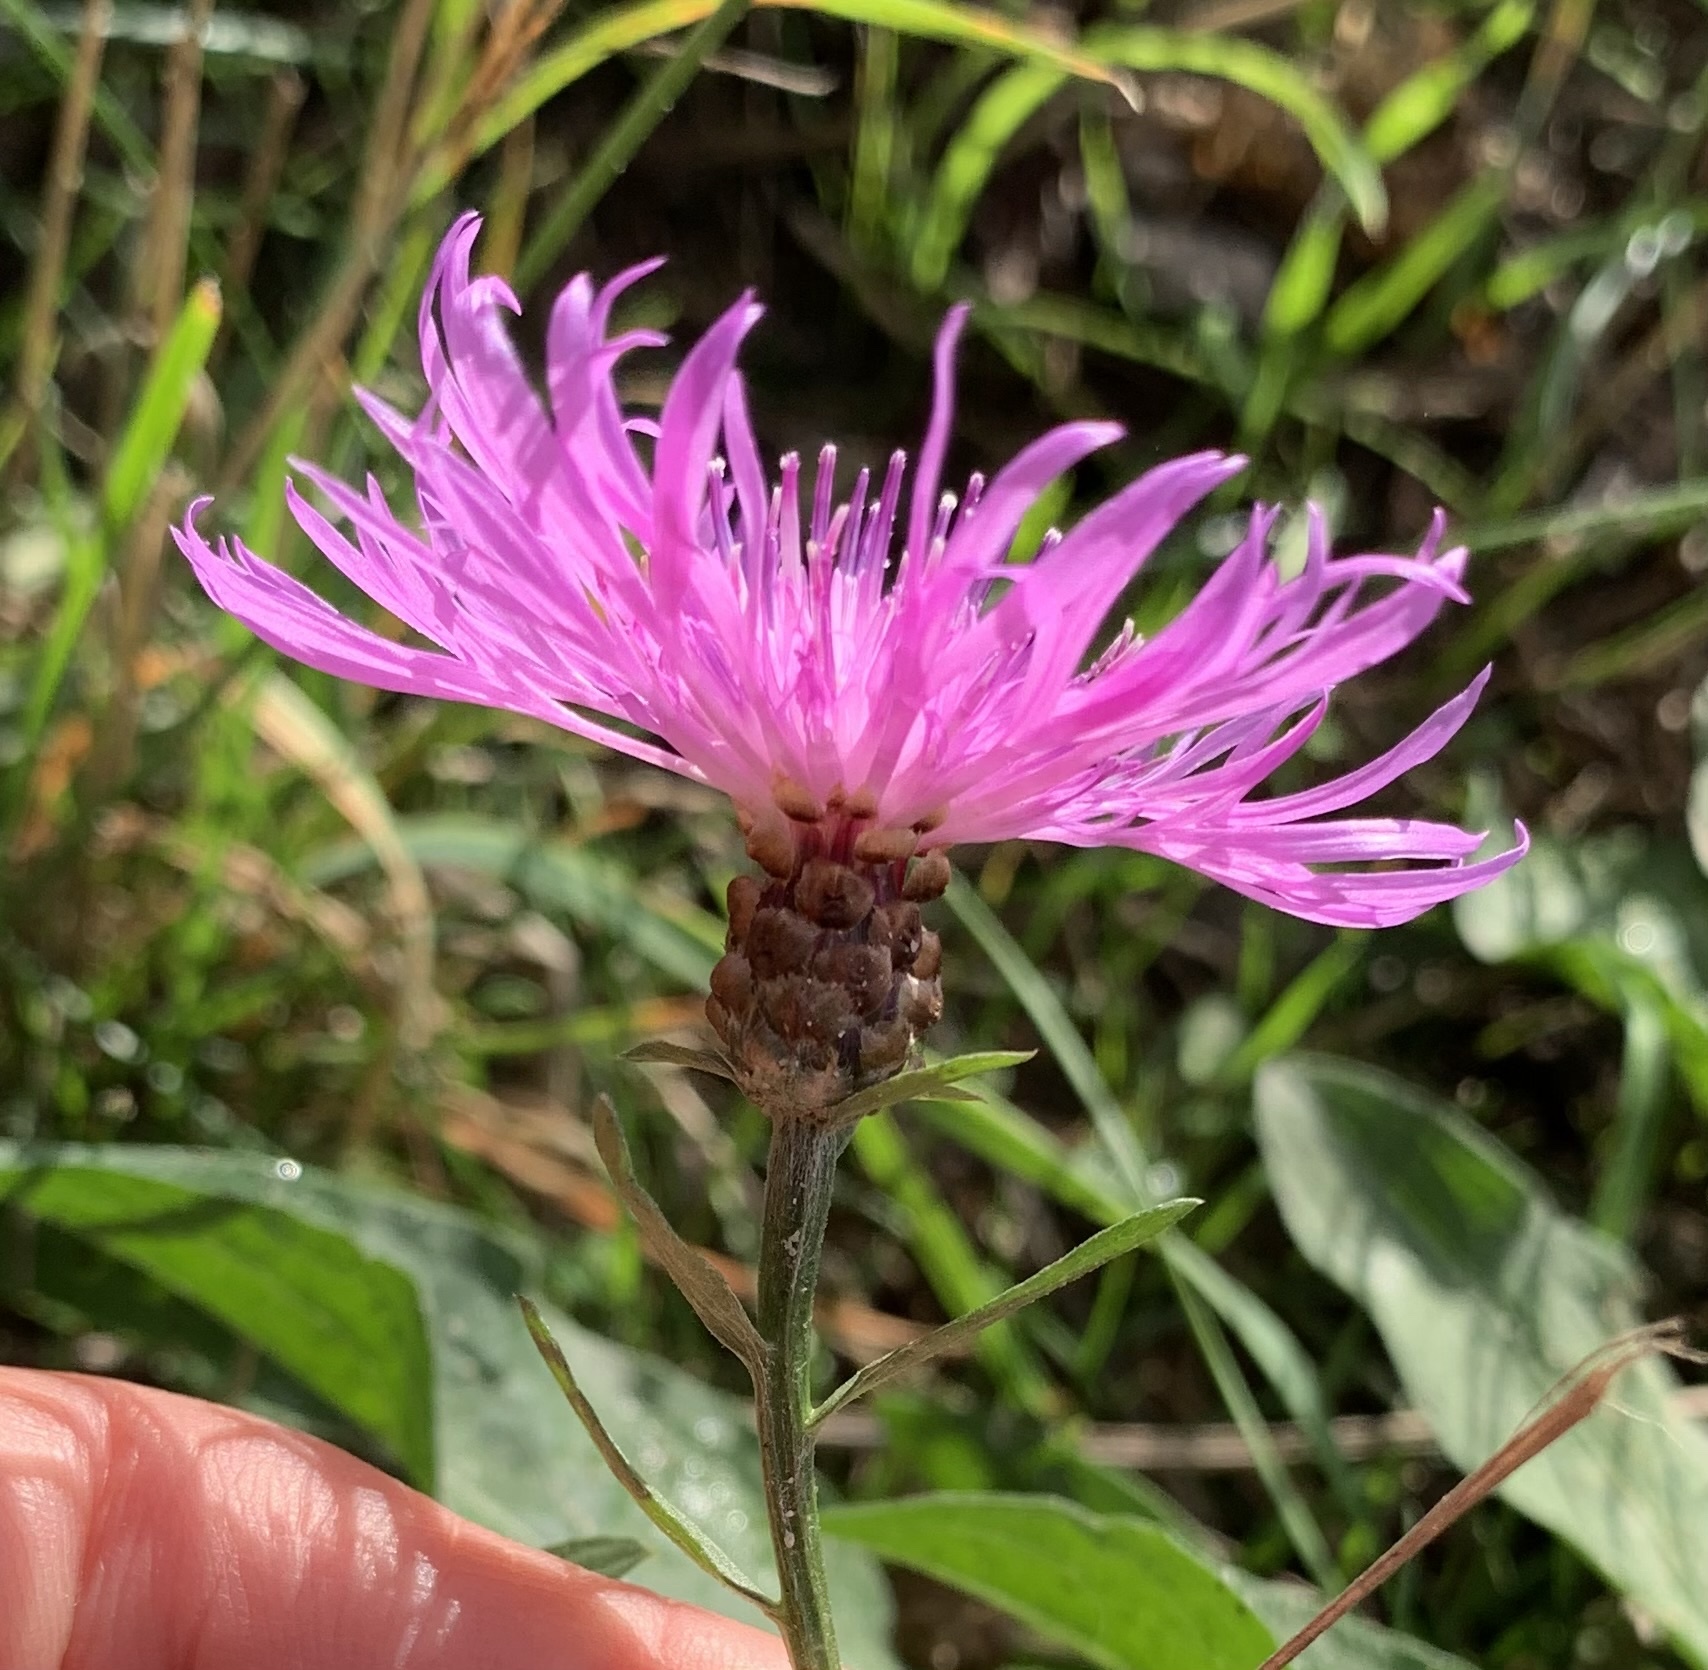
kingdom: Plantae
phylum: Tracheophyta
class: Magnoliopsida
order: Asterales
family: Asteraceae
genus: Centaurea
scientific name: Centaurea jacea
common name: Brown knapweed
